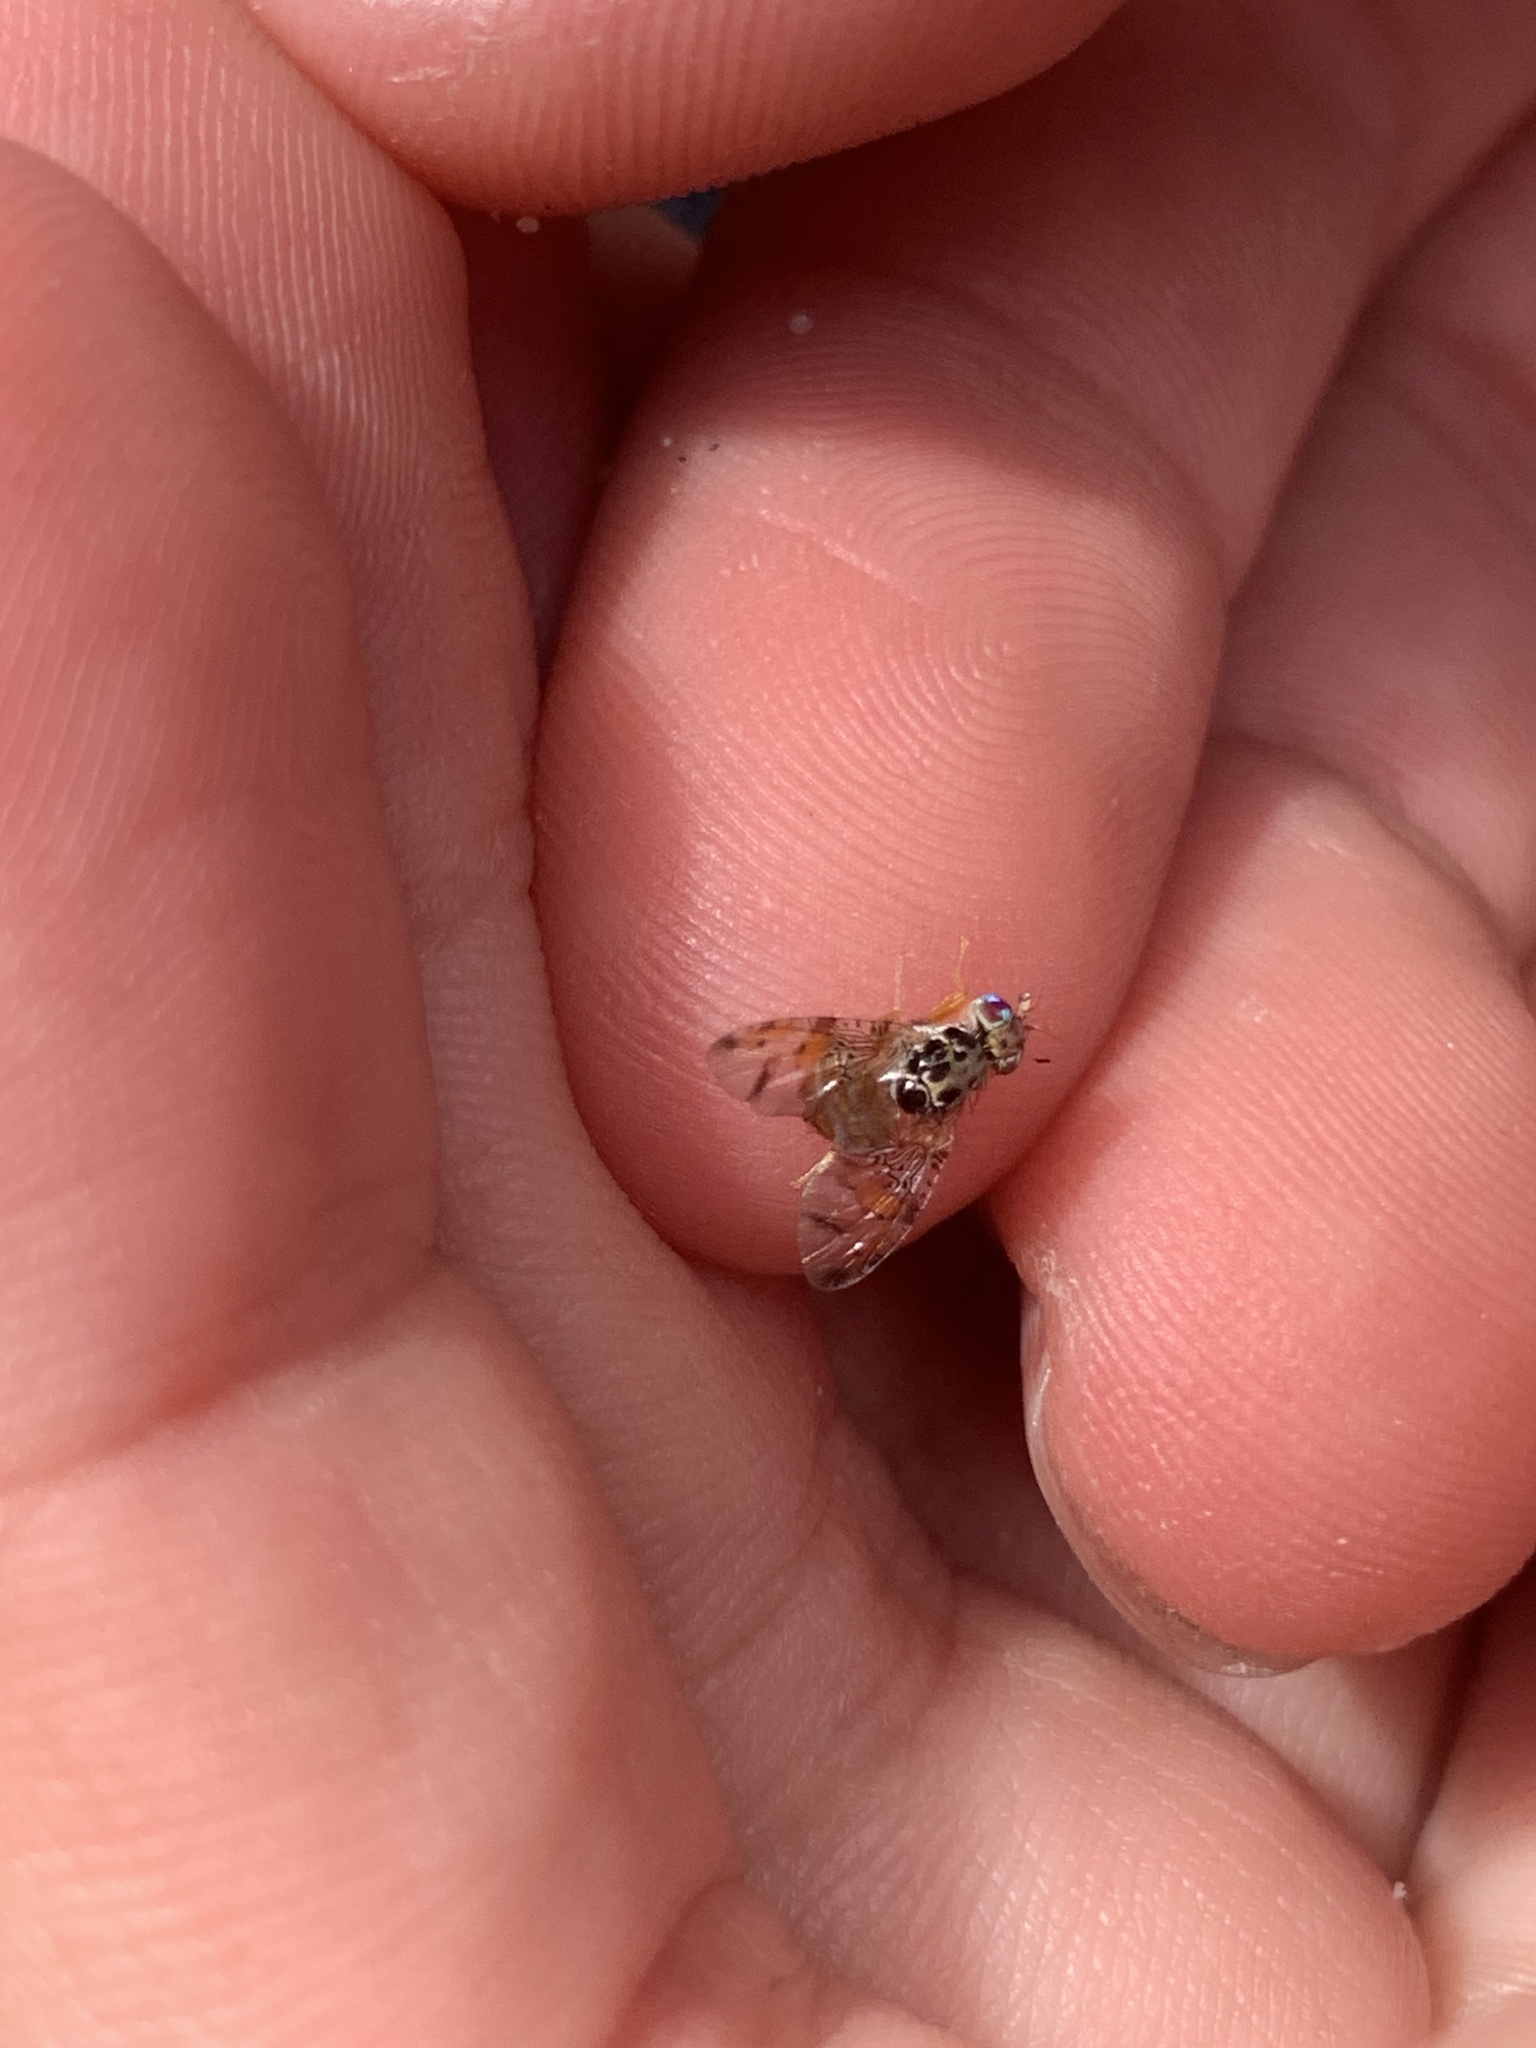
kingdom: Animalia
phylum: Arthropoda
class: Insecta
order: Diptera
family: Tephritidae
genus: Ceratitis
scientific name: Ceratitis capitata
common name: Mediterranean fruit fly
